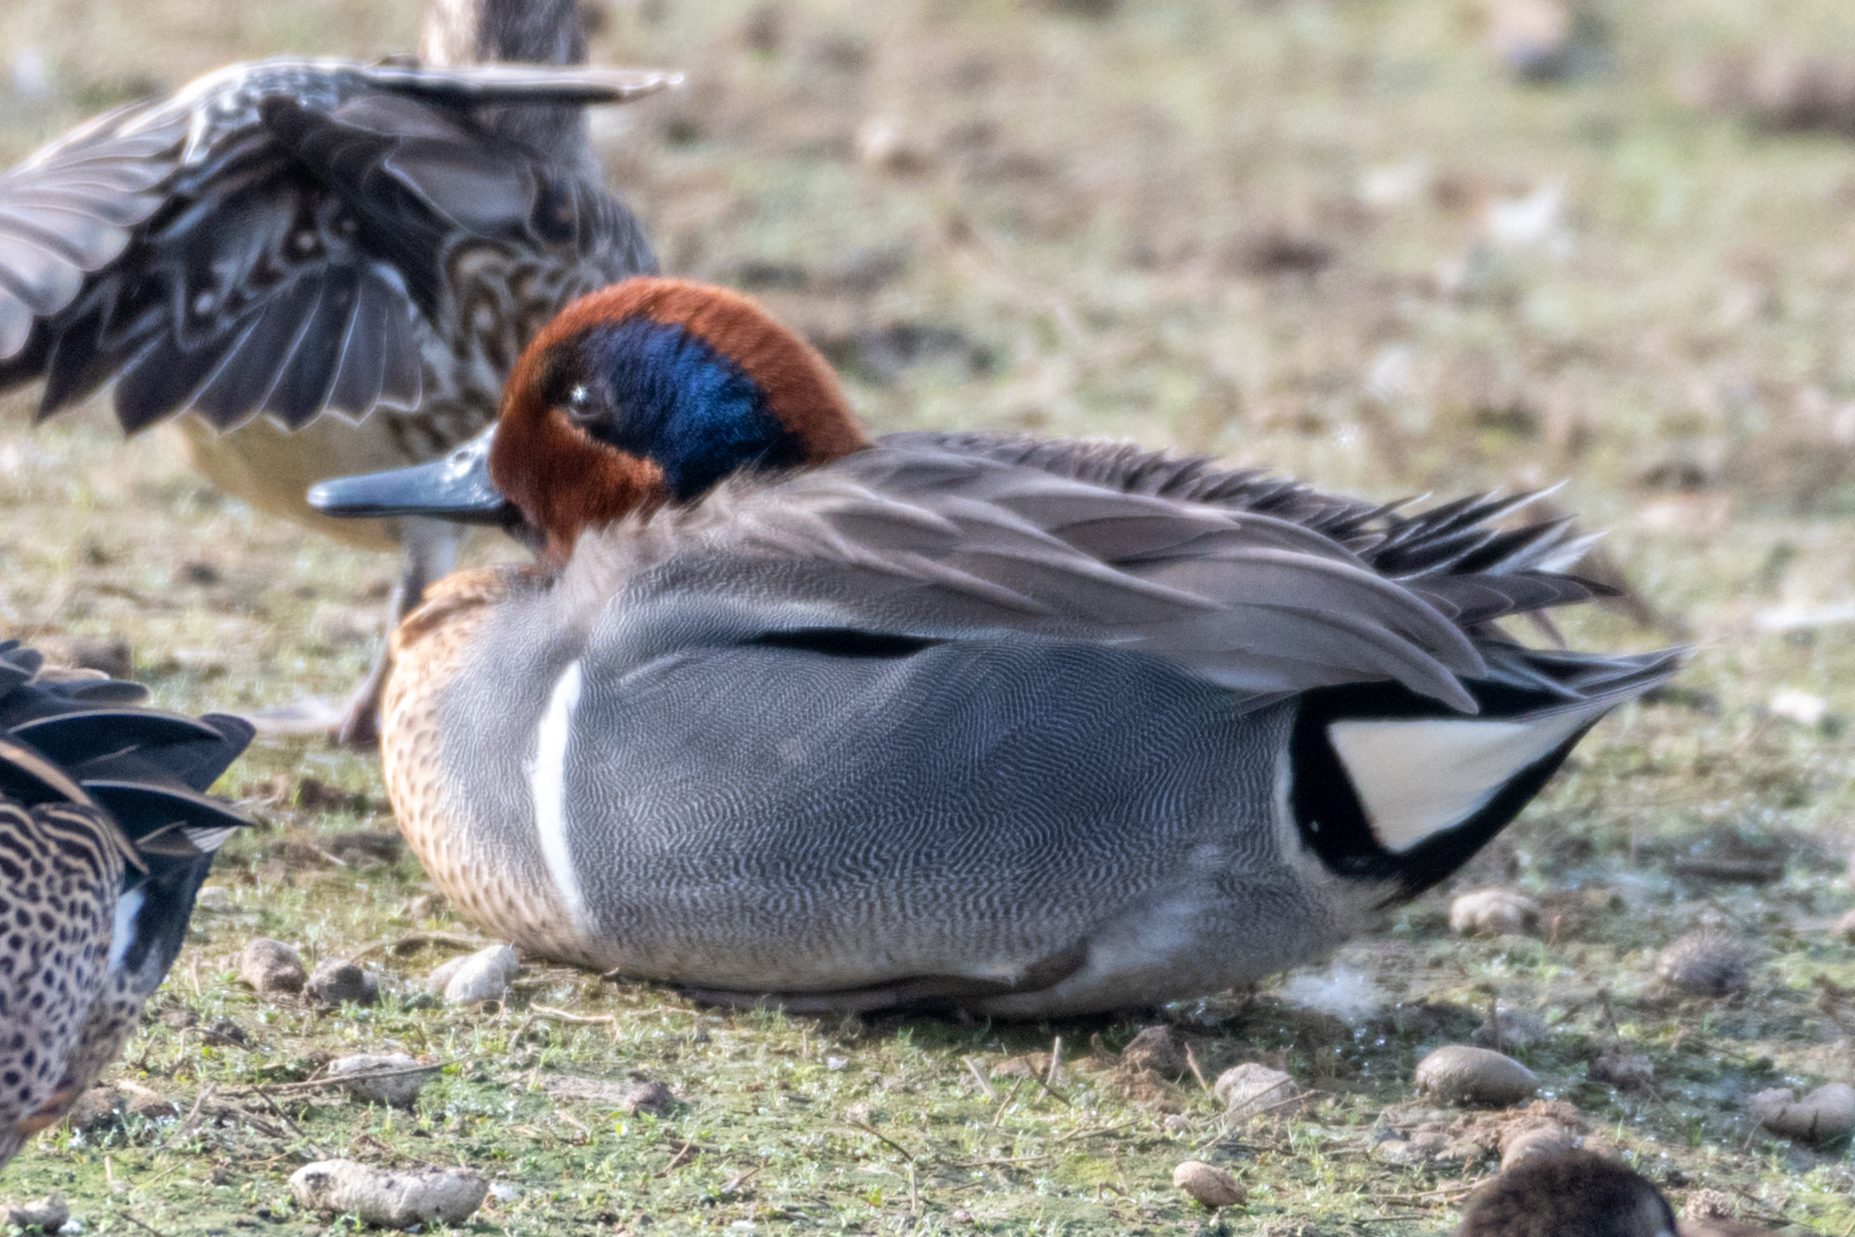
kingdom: Animalia
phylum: Chordata
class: Aves
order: Anseriformes
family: Anatidae
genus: Anas
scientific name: Anas crecca
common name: Eurasian teal
